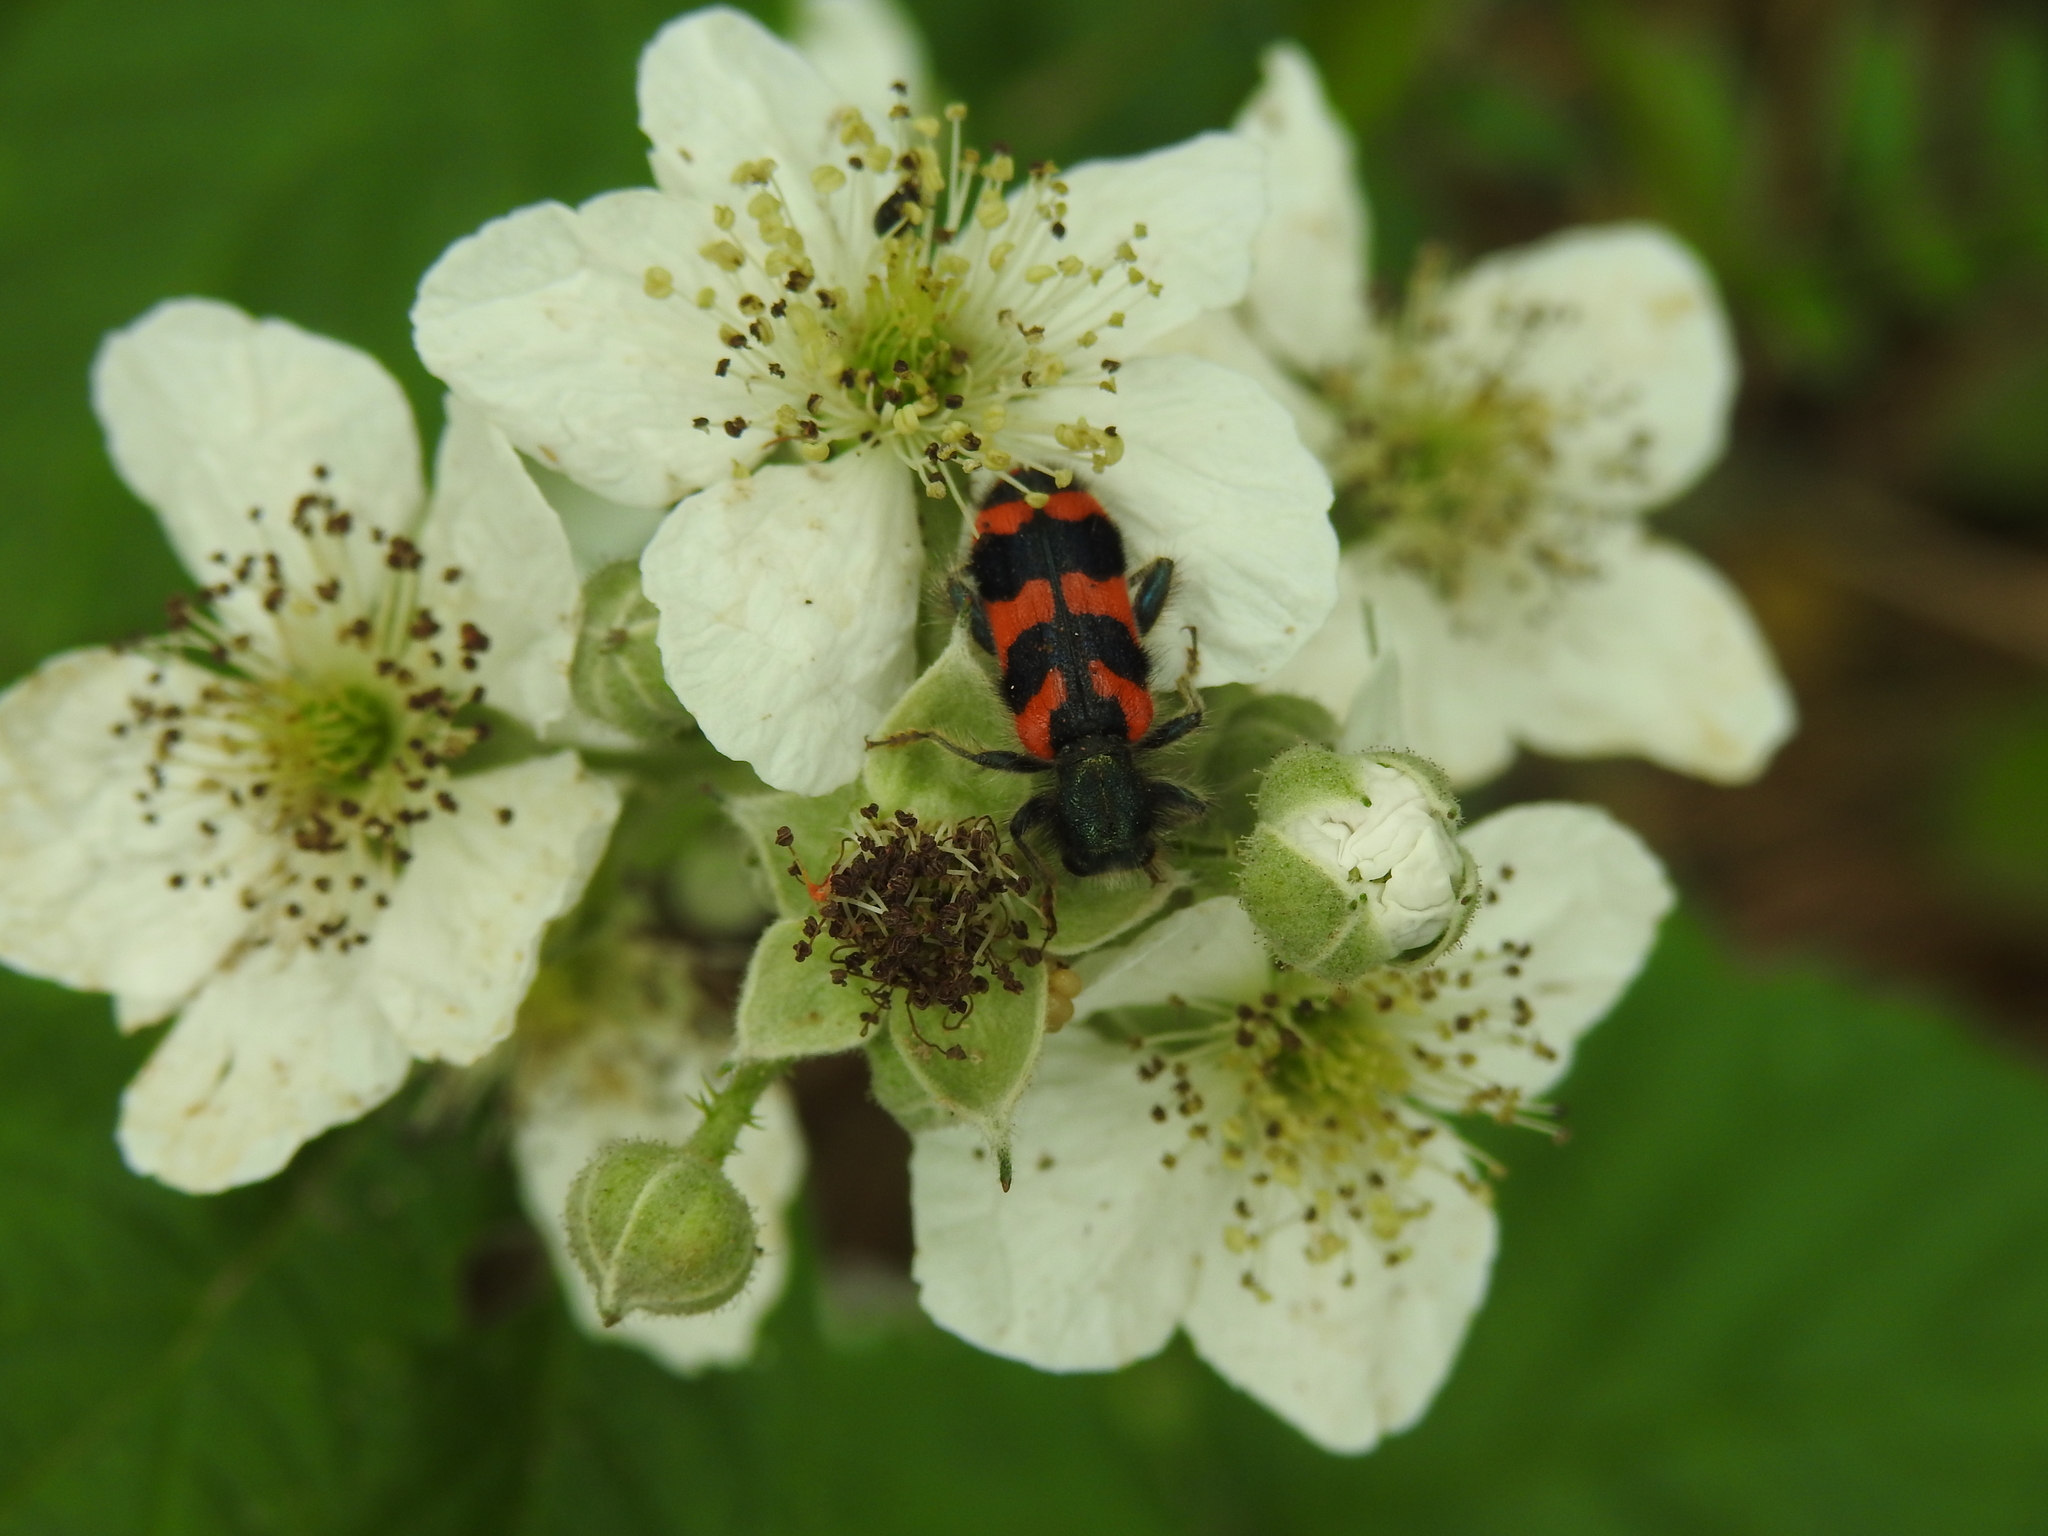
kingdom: Animalia
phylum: Arthropoda
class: Insecta
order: Coleoptera
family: Cleridae
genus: Trichodes
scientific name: Trichodes alvearius
